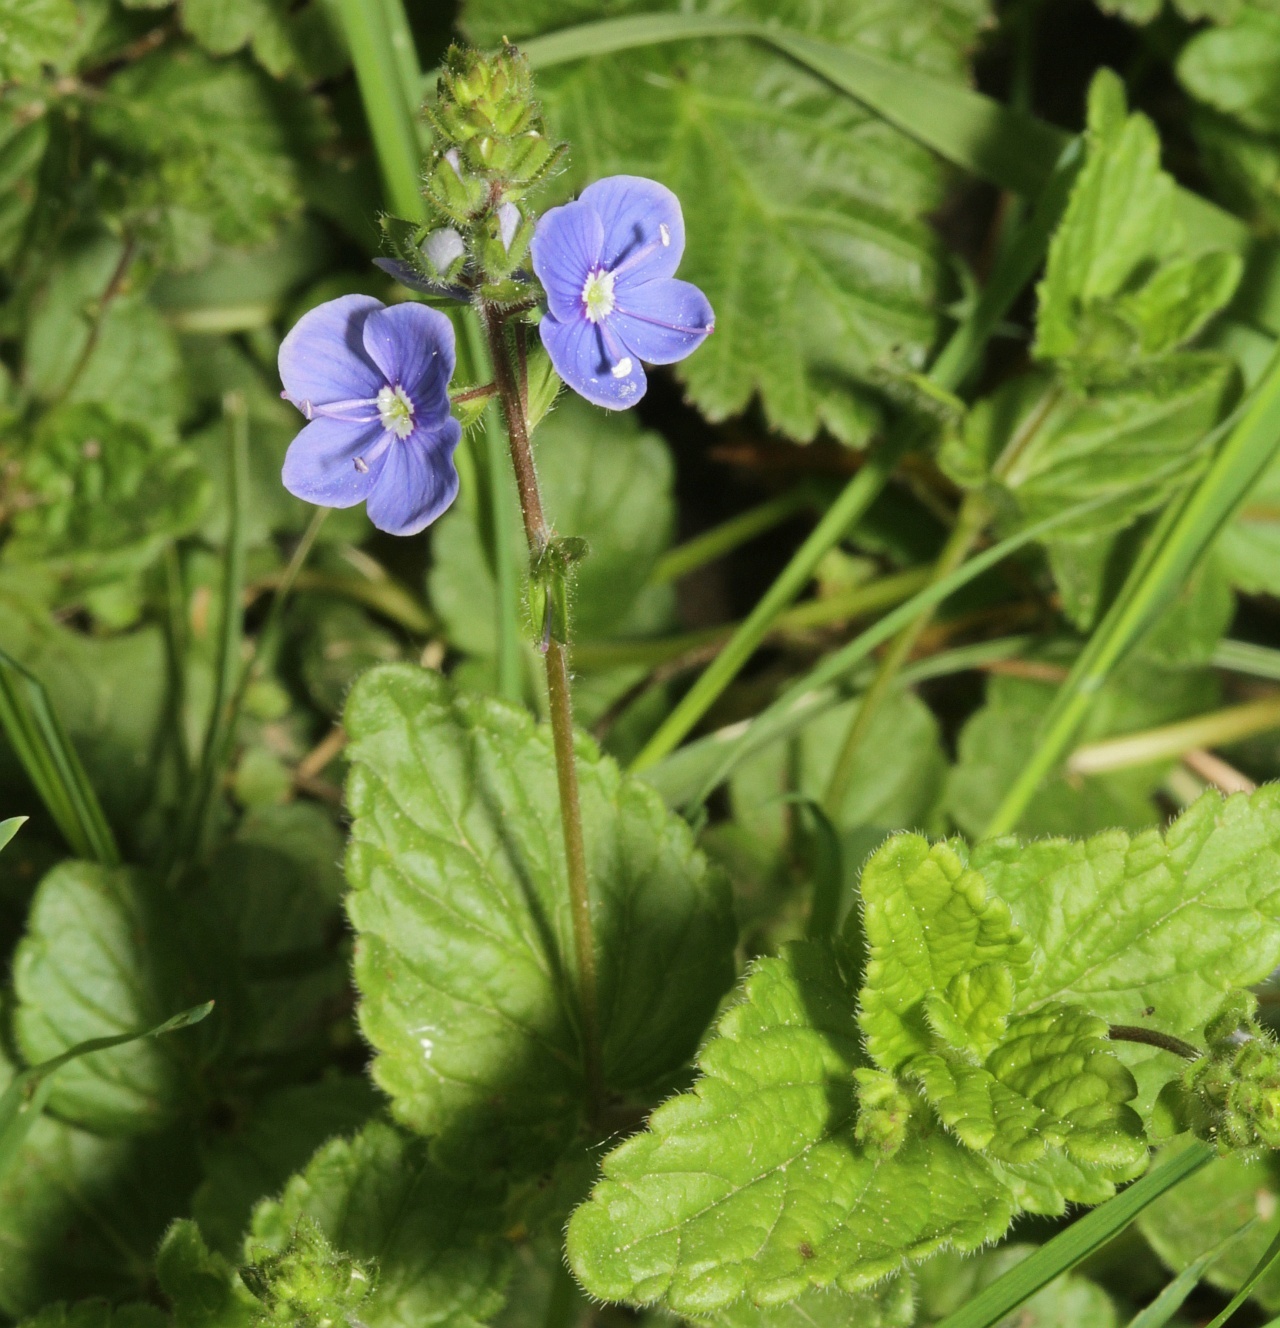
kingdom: Plantae
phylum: Tracheophyta
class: Magnoliopsida
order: Lamiales
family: Plantaginaceae
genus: Veronica
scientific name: Veronica chamaedrys
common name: Germander speedwell
